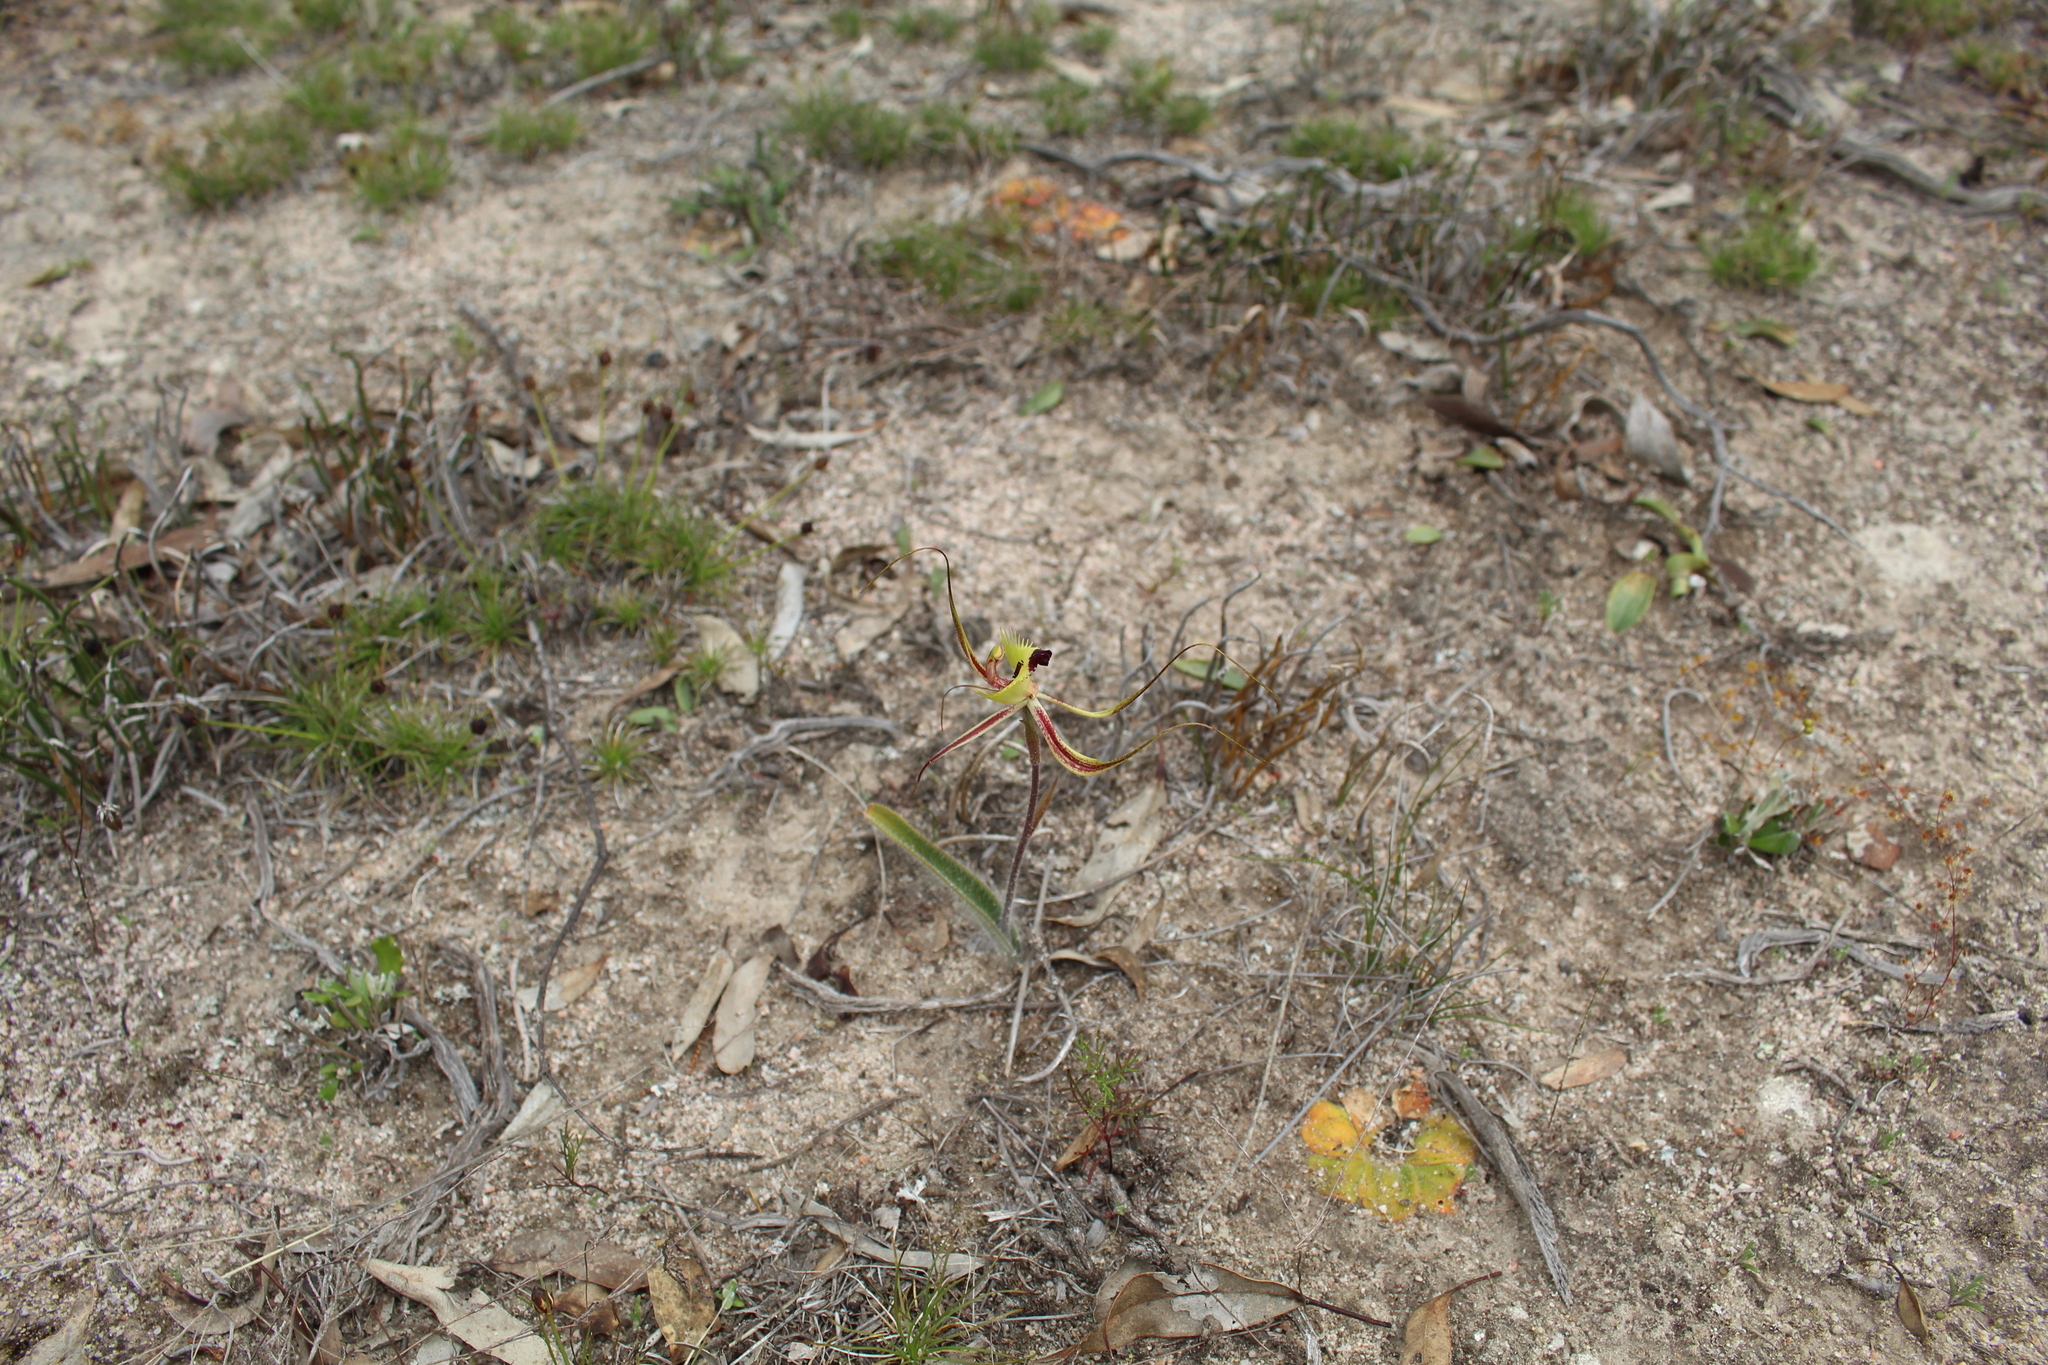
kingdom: Plantae
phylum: Tracheophyta
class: Liliopsida
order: Asparagales
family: Orchidaceae
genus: Caladenia
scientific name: Caladenia falcata
